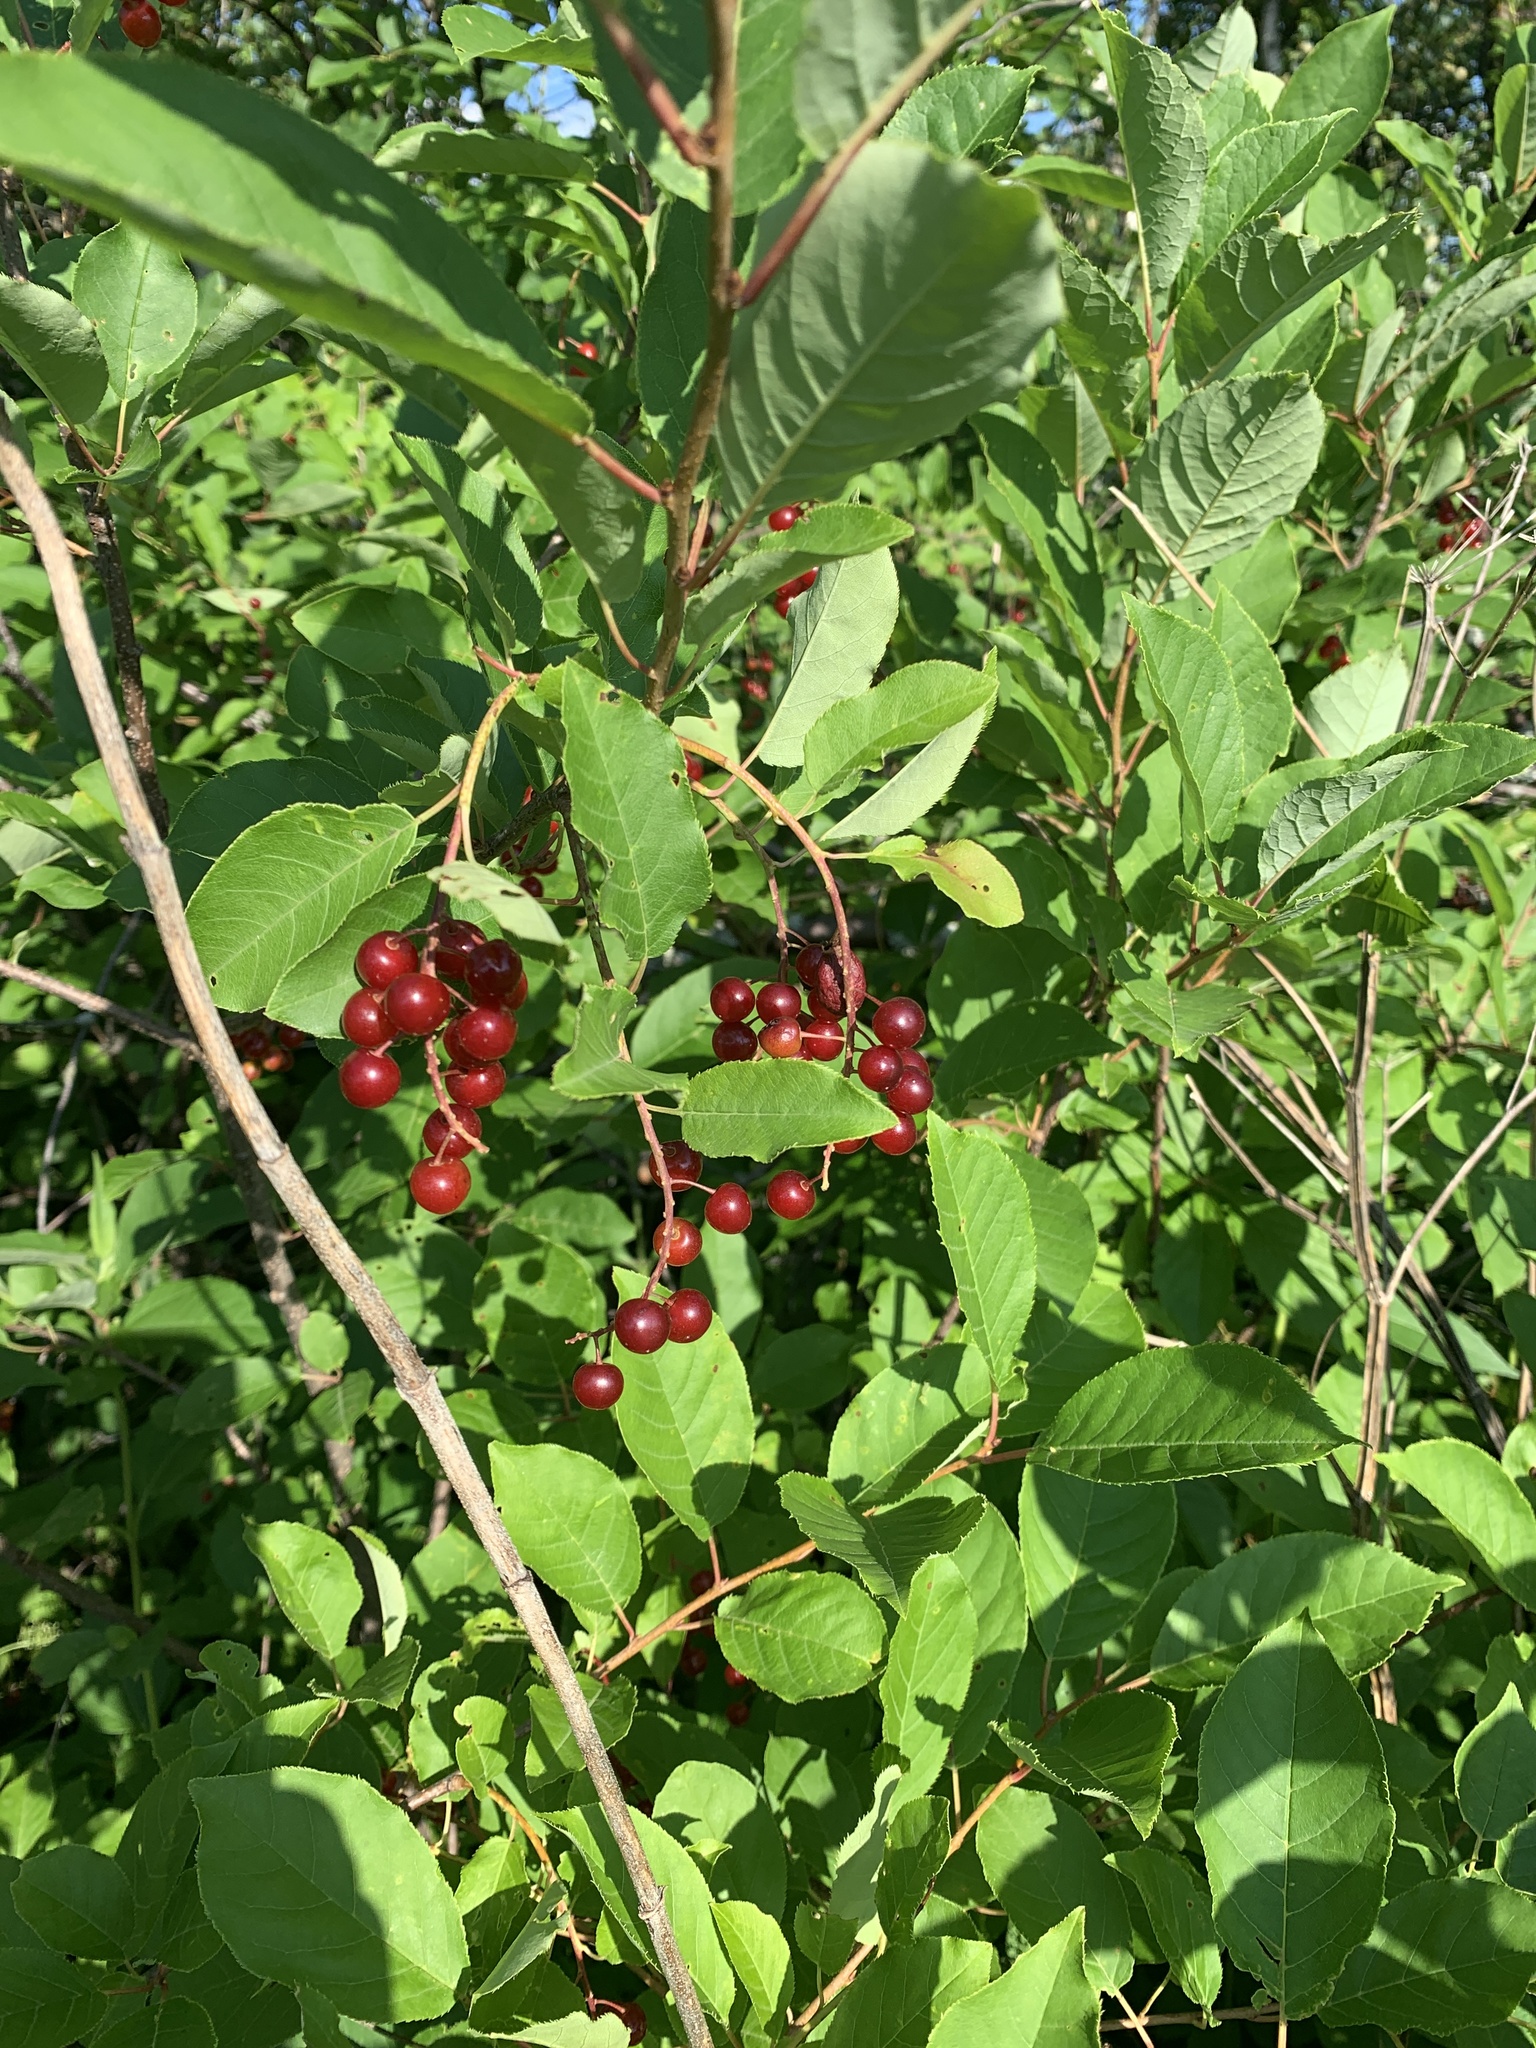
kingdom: Plantae
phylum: Tracheophyta
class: Magnoliopsida
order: Rosales
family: Rosaceae
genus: Prunus
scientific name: Prunus virginiana
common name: Chokecherry
